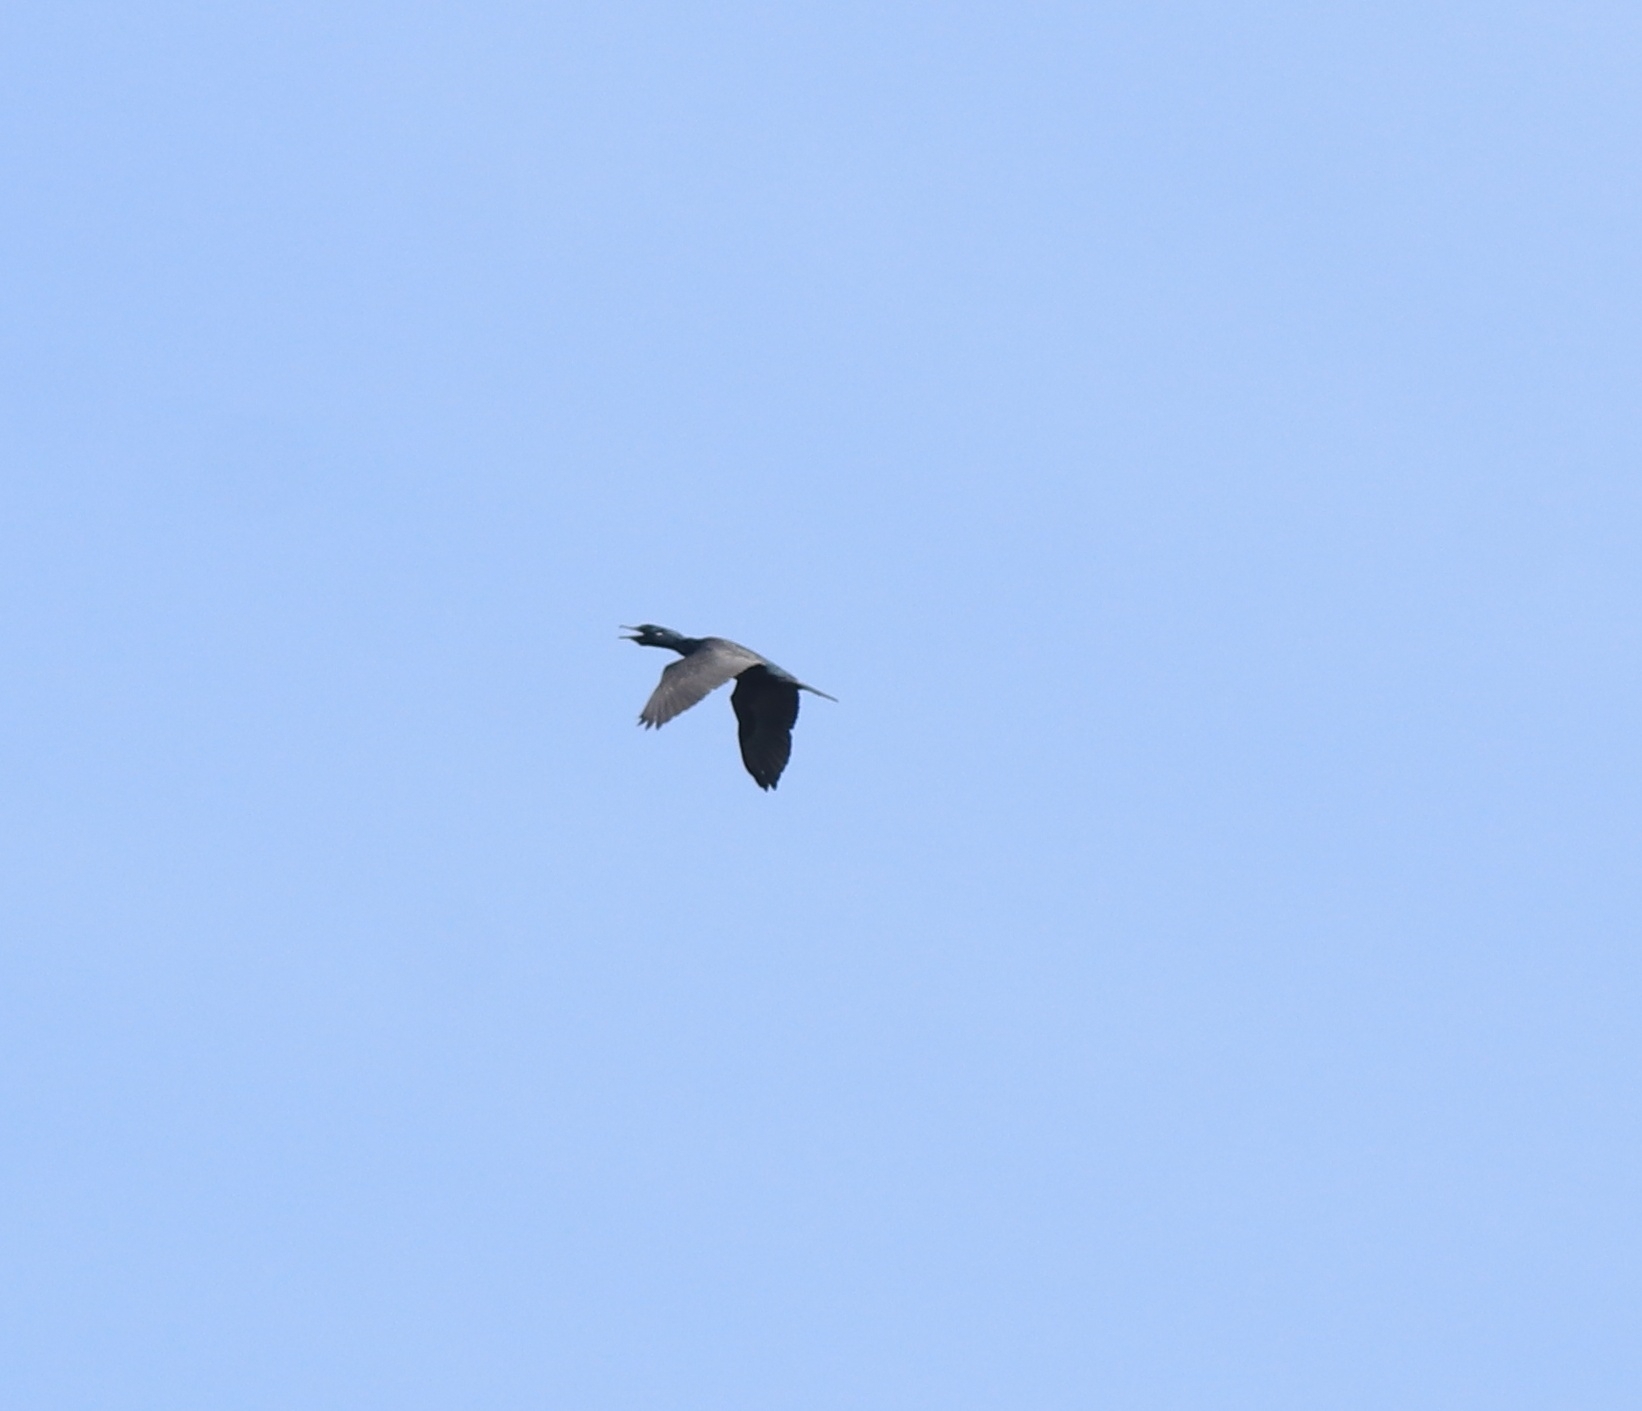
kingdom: Animalia
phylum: Chordata
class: Aves
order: Suliformes
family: Phalacrocoracidae
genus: Phalacrocorax
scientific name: Phalacrocorax fuscicollis
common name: Indian cormorant
